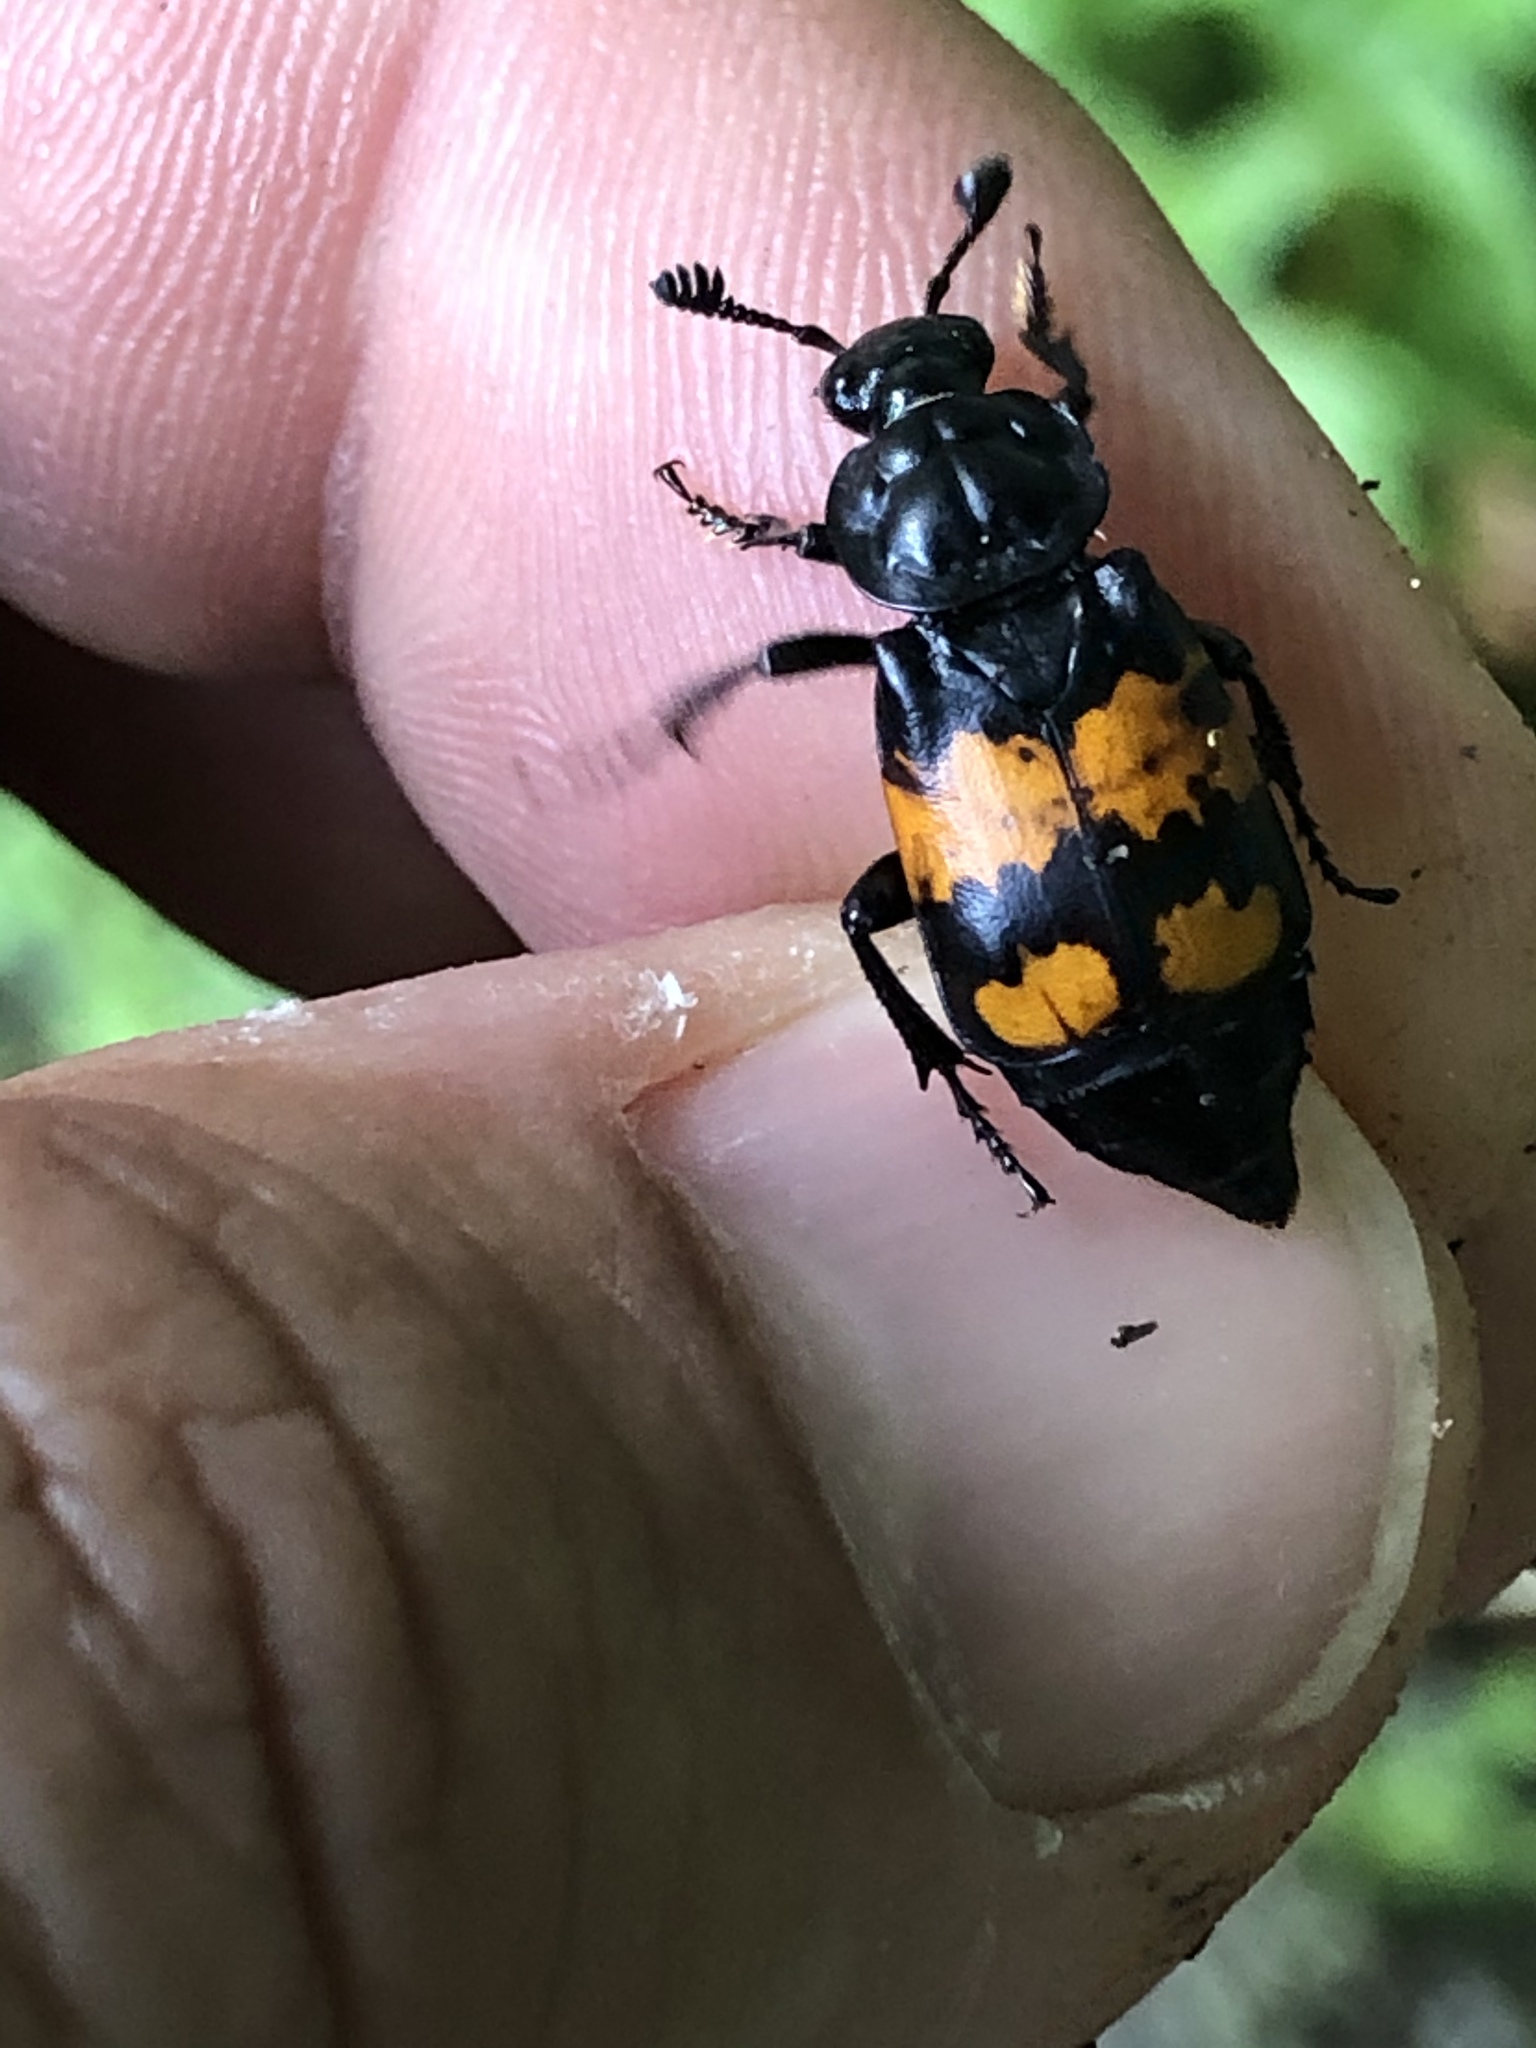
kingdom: Animalia
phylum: Arthropoda
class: Insecta
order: Coleoptera
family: Staphylinidae
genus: Nicrophorus
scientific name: Nicrophorus vespilloides
